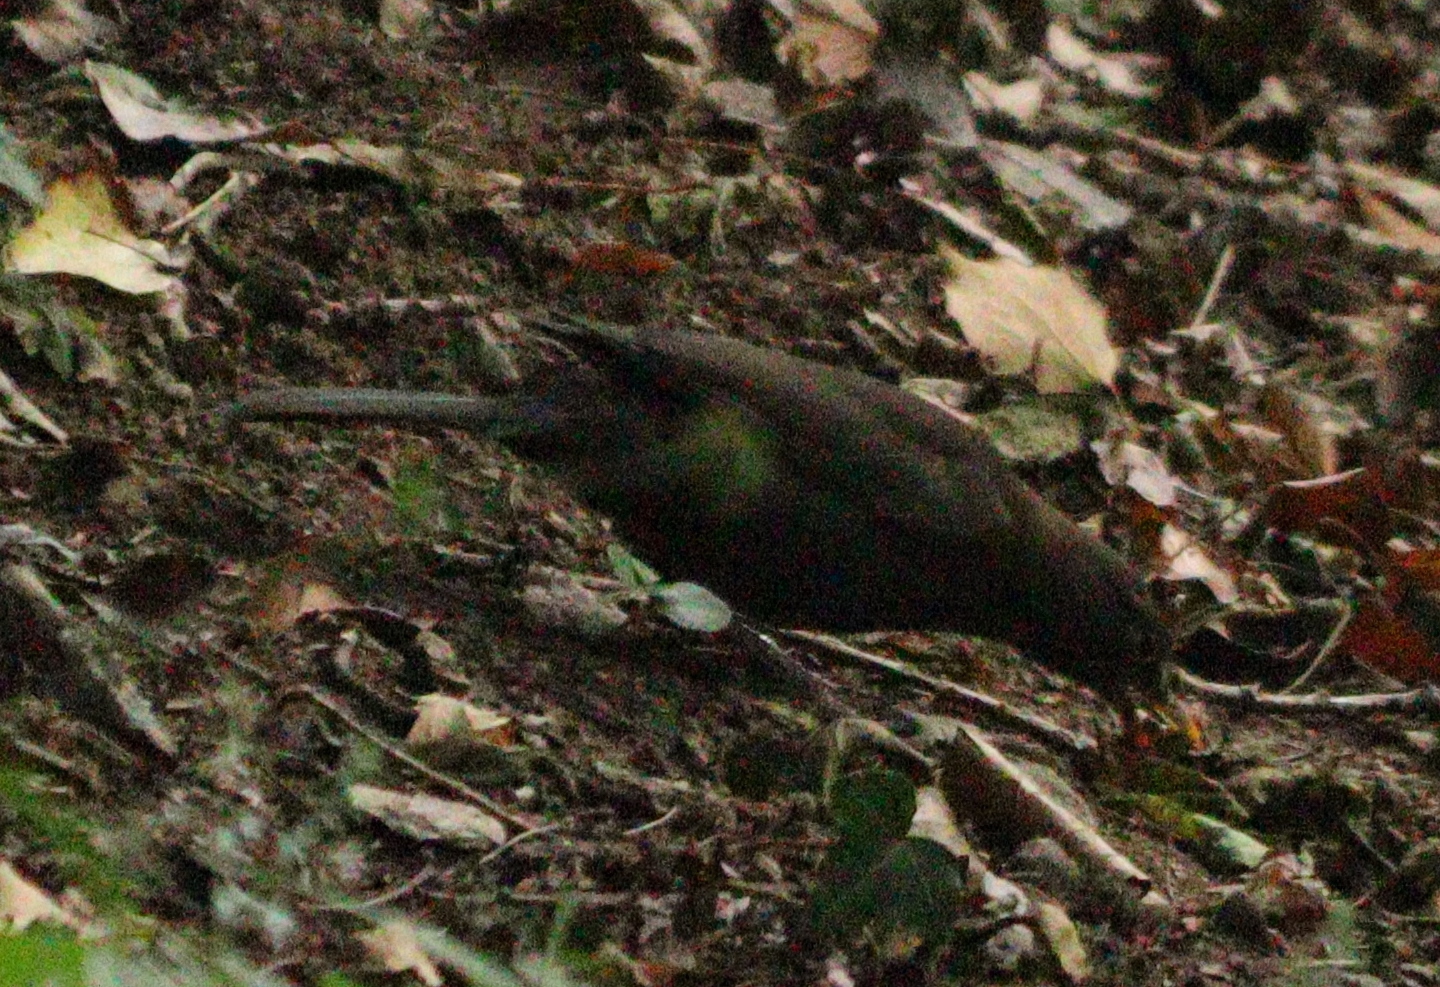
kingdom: Animalia
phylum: Chordata
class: Aves
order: Passeriformes
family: Turdidae
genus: Turdus
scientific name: Turdus merula
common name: Common blackbird
